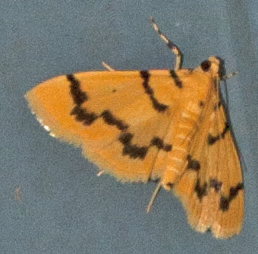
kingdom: Animalia
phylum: Arthropoda
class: Insecta
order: Lepidoptera
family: Crambidae
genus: Dichocrocis
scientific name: Dichocrocis clytusalis
